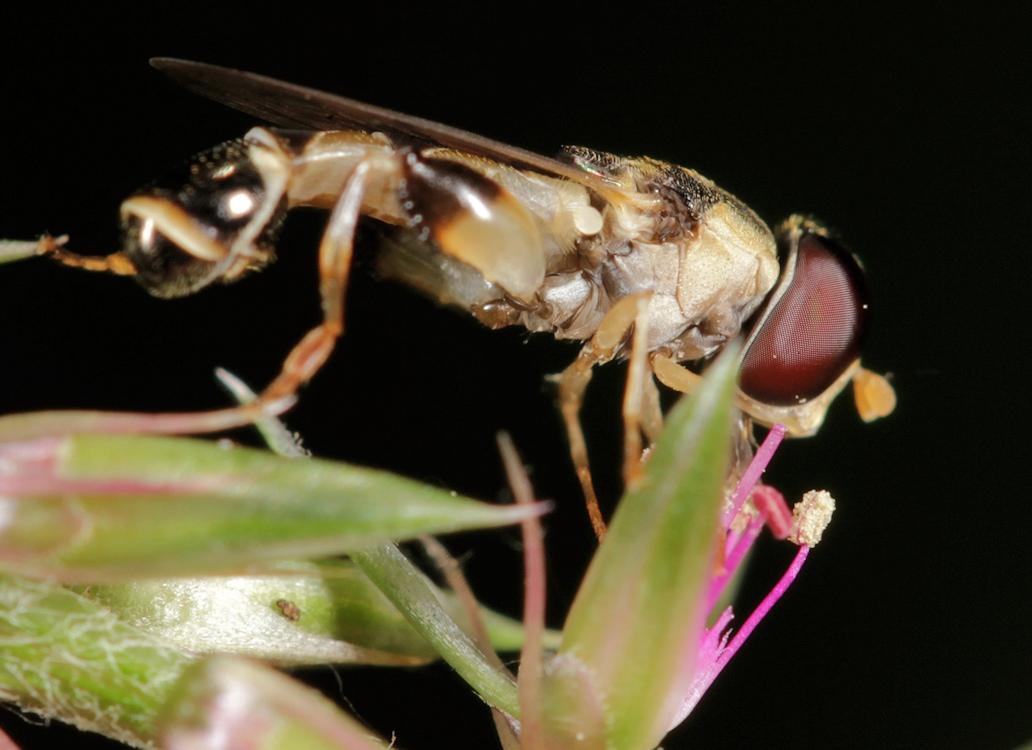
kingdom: Animalia
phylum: Arthropoda
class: Insecta
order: Diptera
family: Syrphidae
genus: Syritta
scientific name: Syritta bulbus
